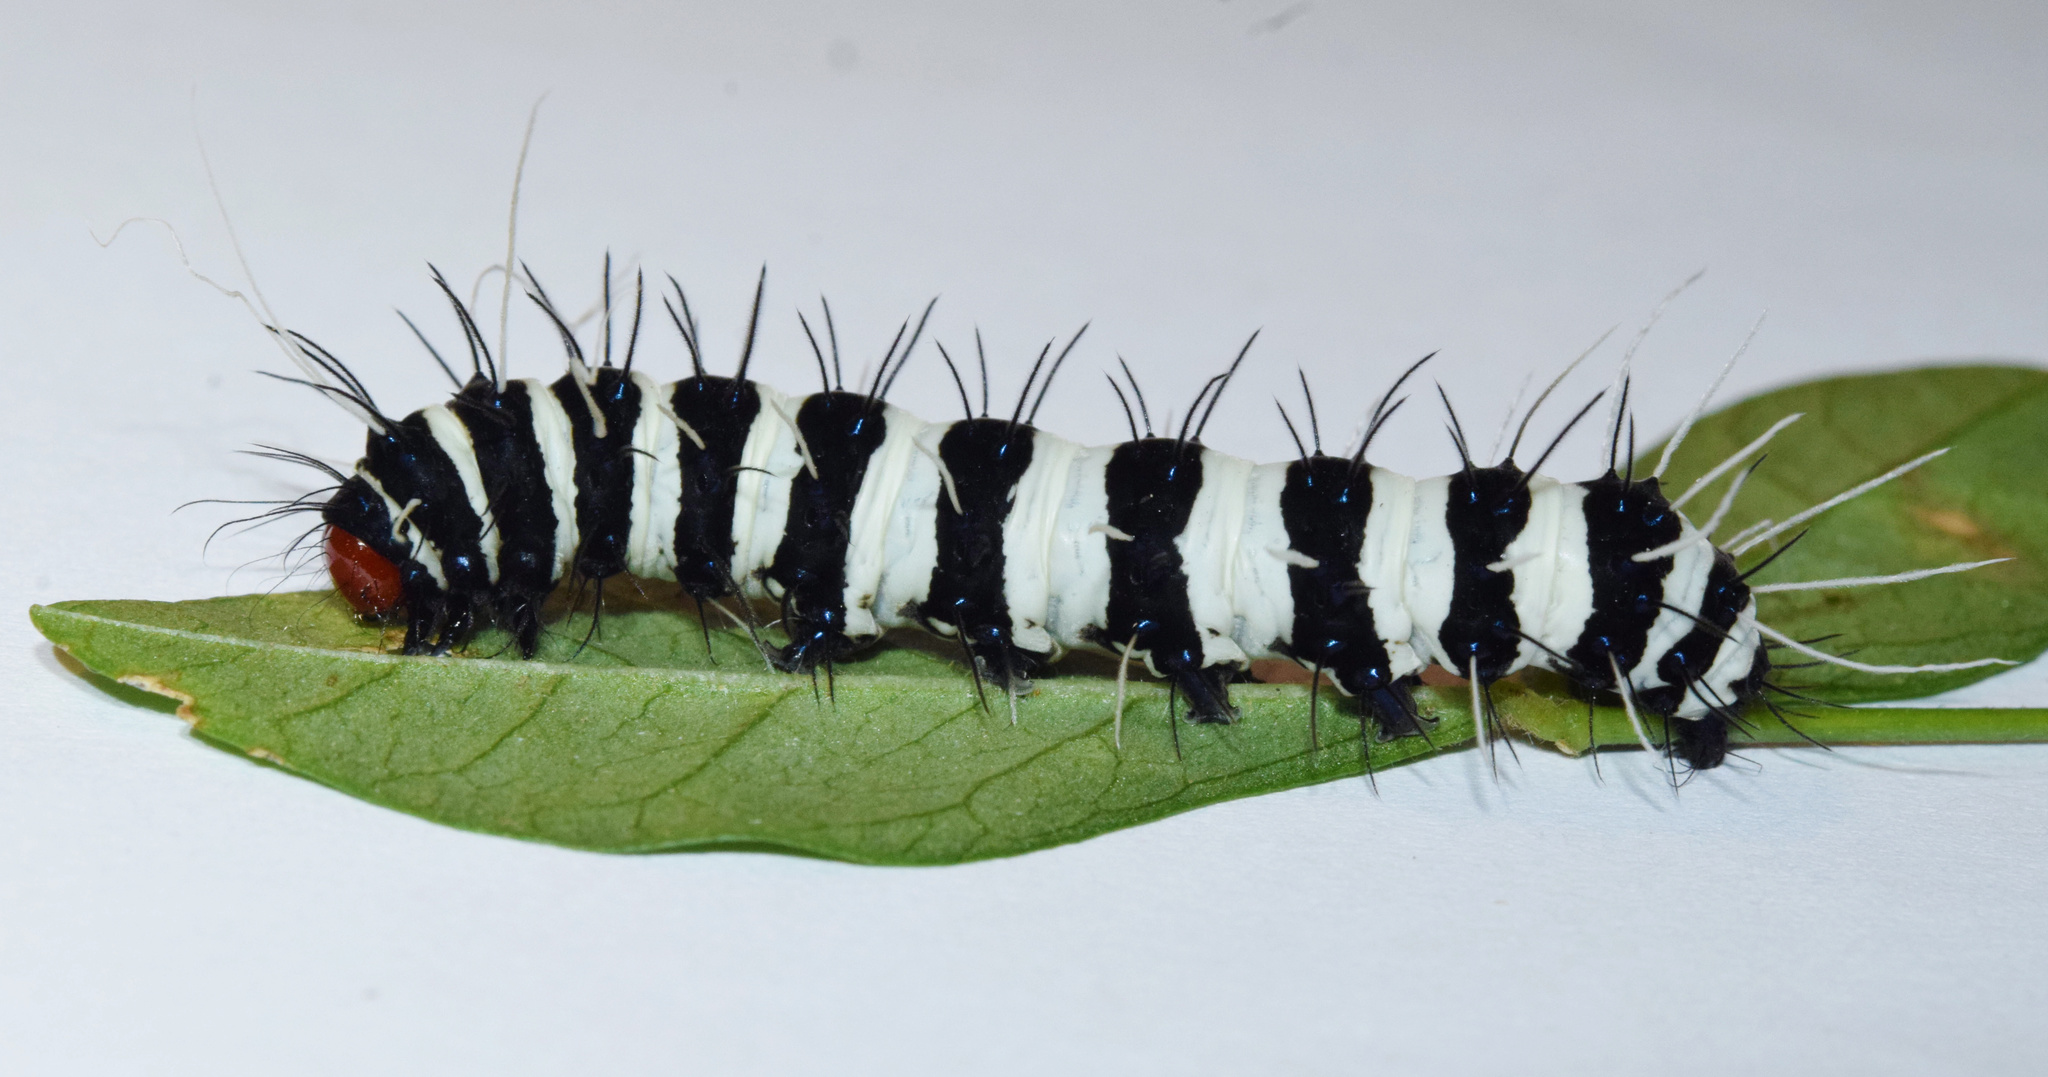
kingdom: Animalia
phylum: Arthropoda
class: Insecta
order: Lepidoptera
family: Erebidae
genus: Amphicallia
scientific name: Amphicallia bellatrix
